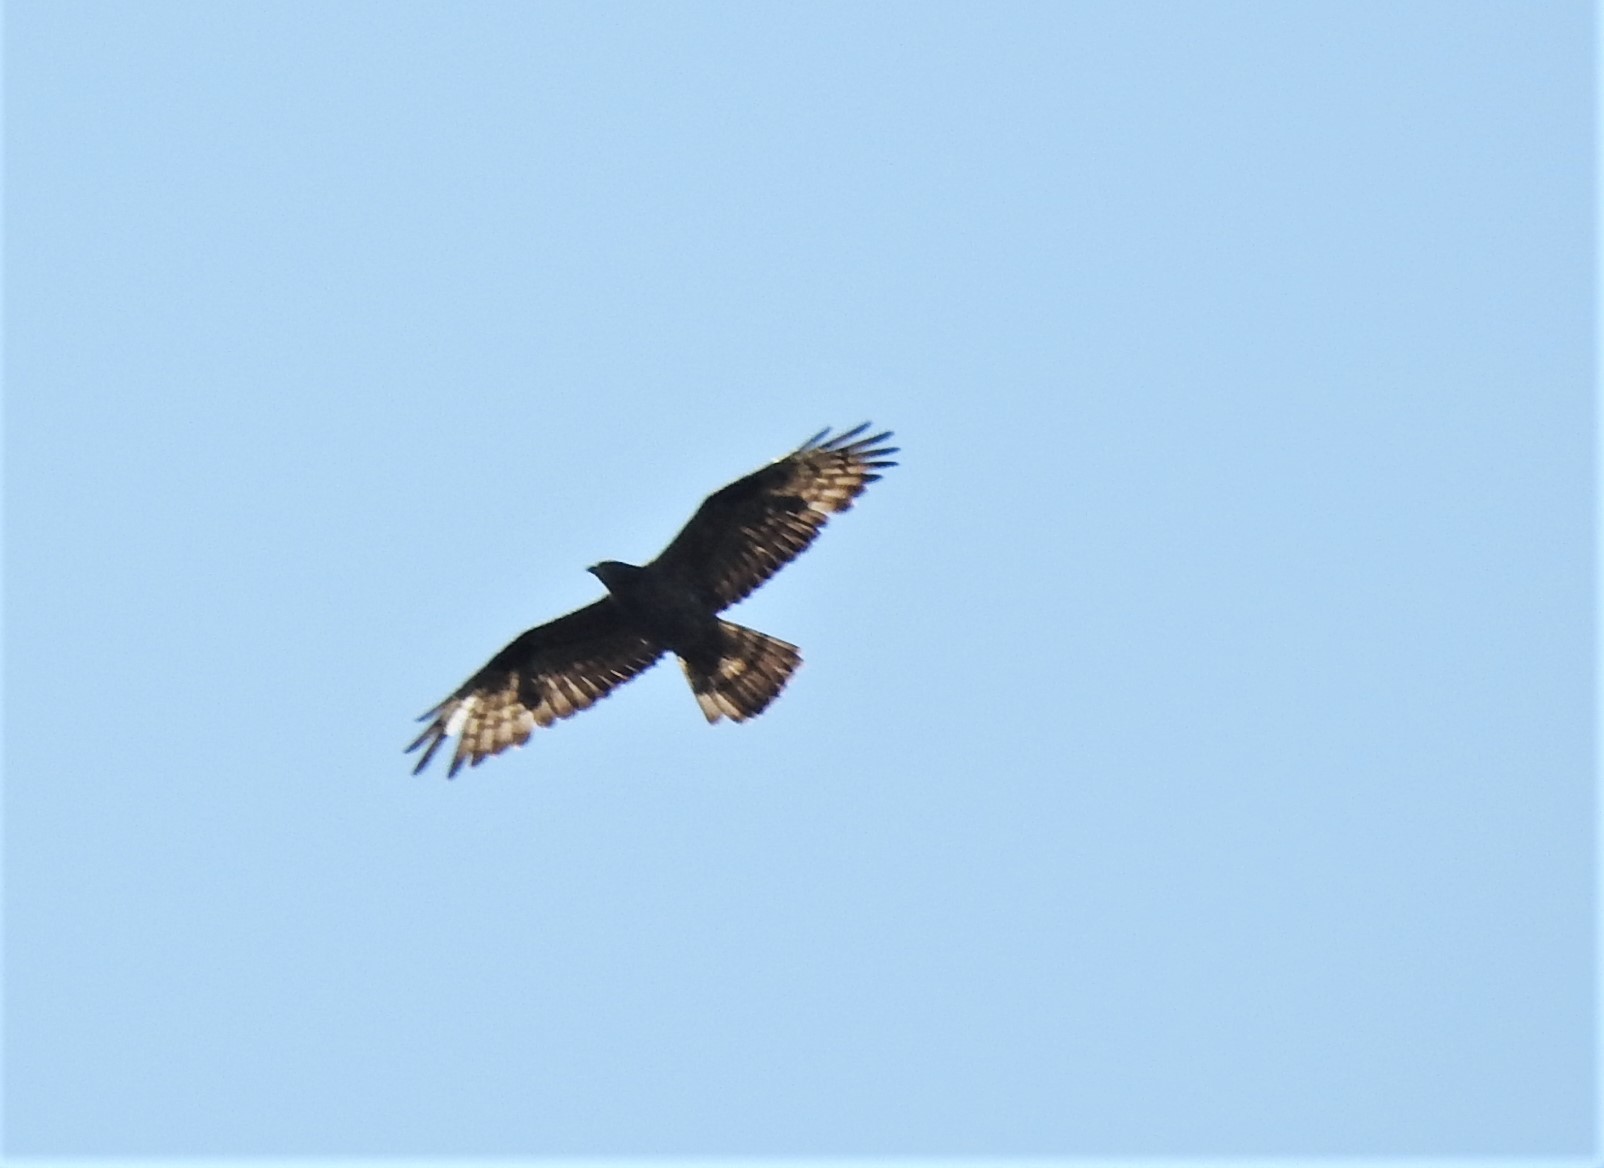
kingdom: Animalia
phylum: Chordata
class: Aves
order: Accipitriformes
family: Accipitridae
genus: Pernis
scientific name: Pernis apivorus
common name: European honey buzzard
